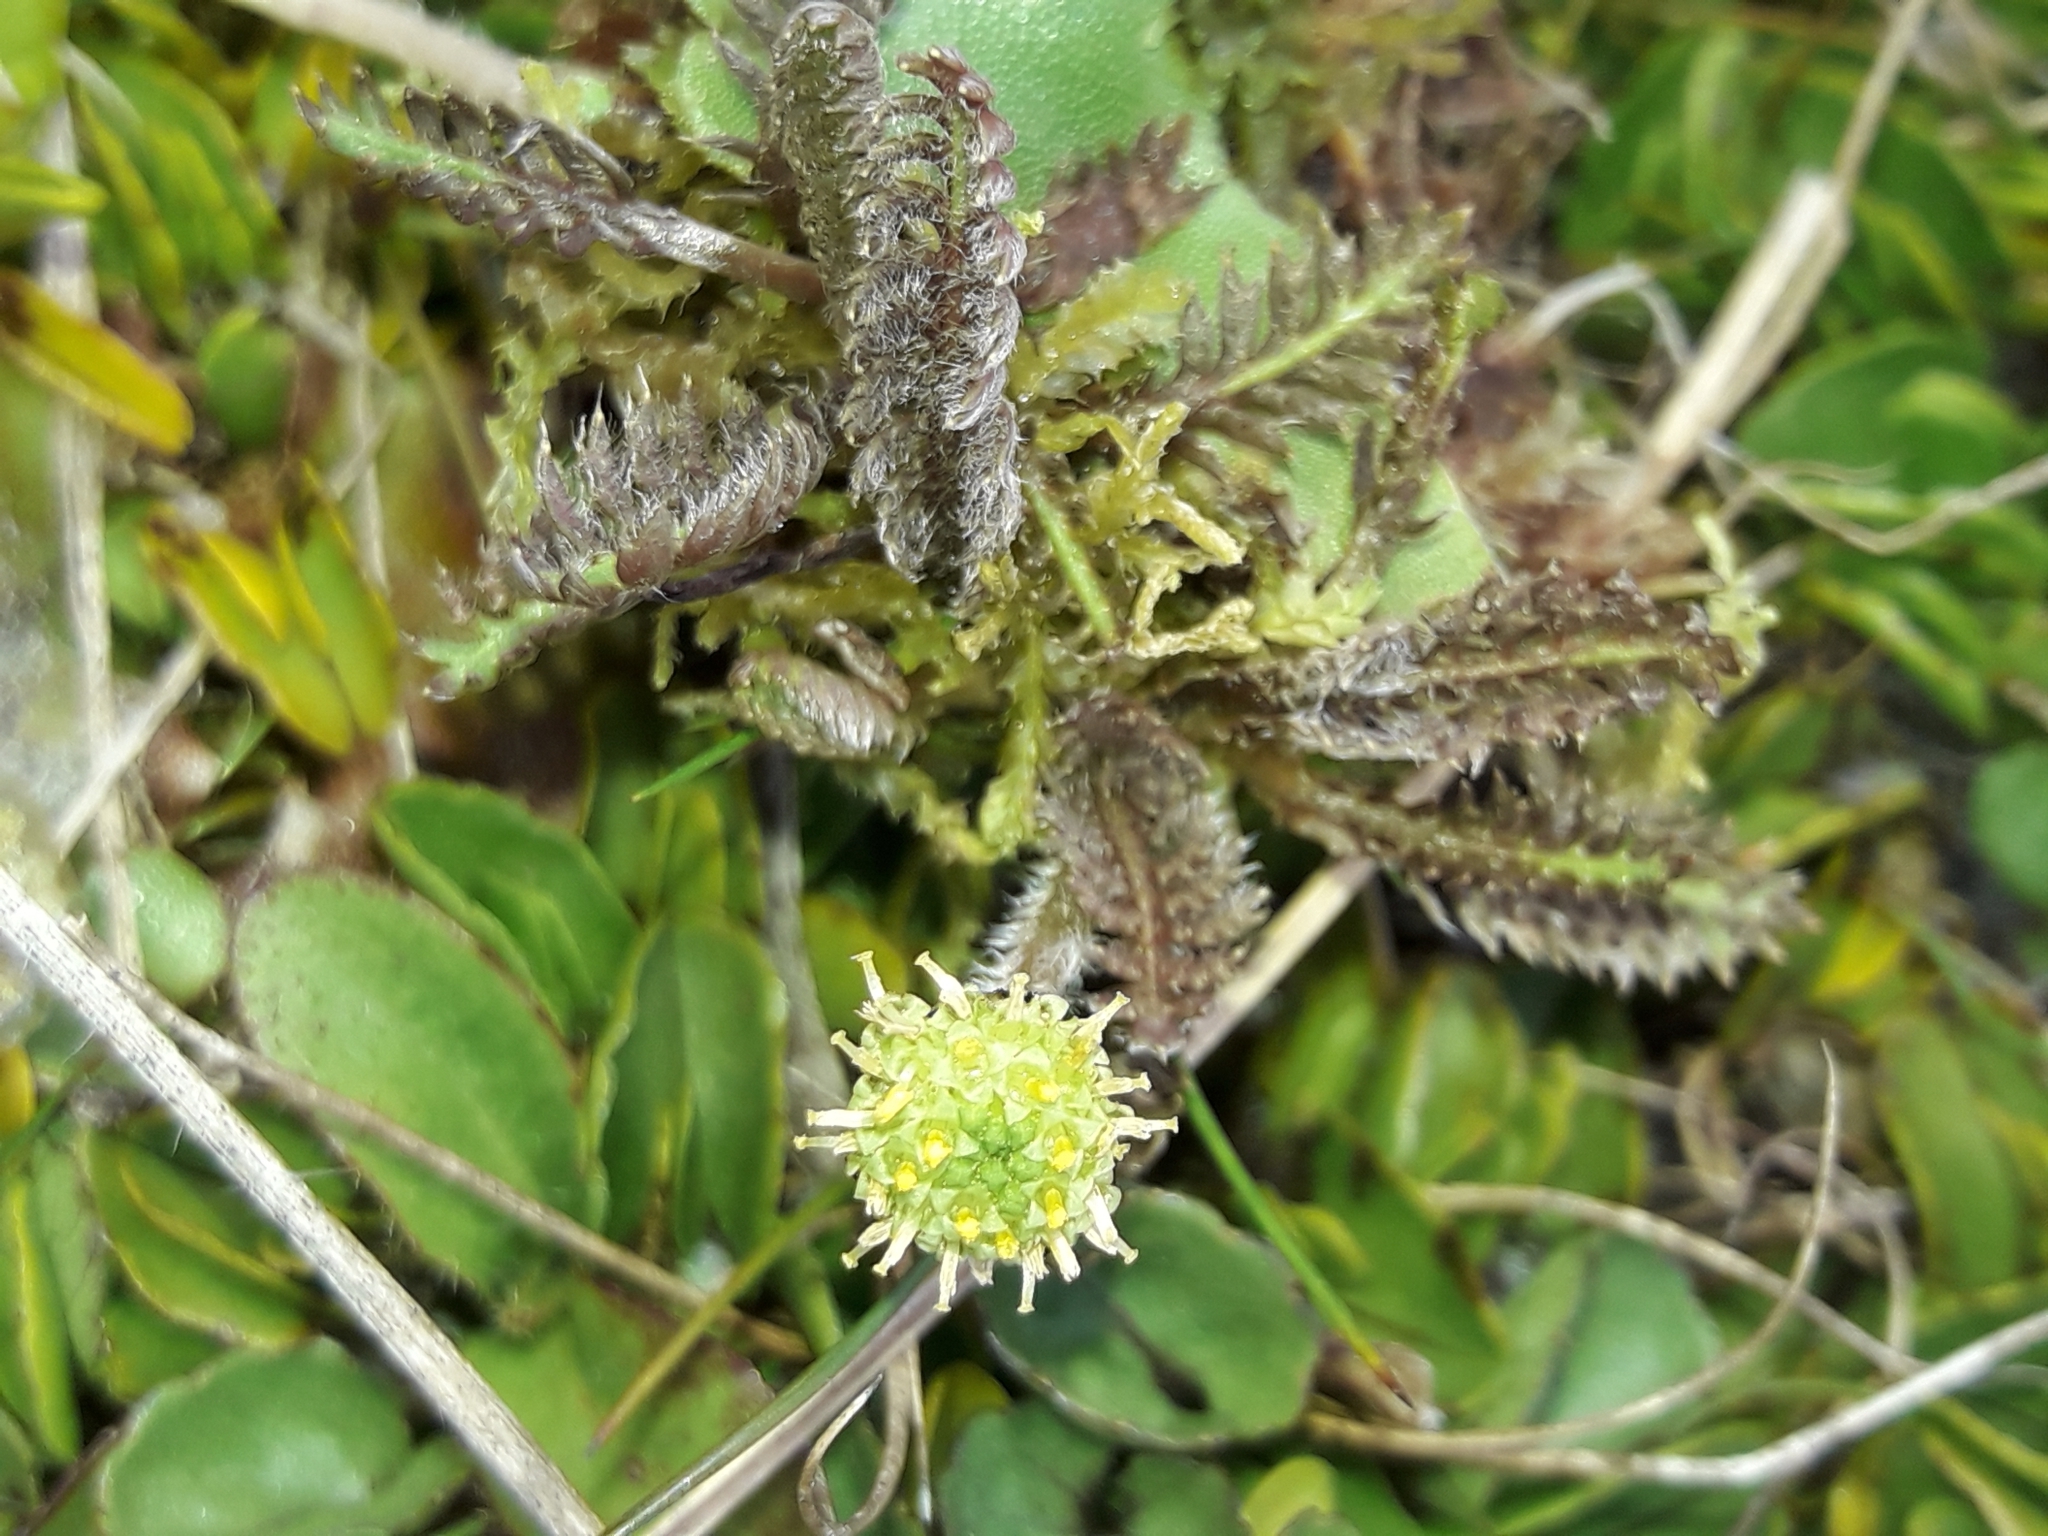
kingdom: Plantae
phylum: Tracheophyta
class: Magnoliopsida
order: Asterales
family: Asteraceae
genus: Leptinella
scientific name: Leptinella pusilla
